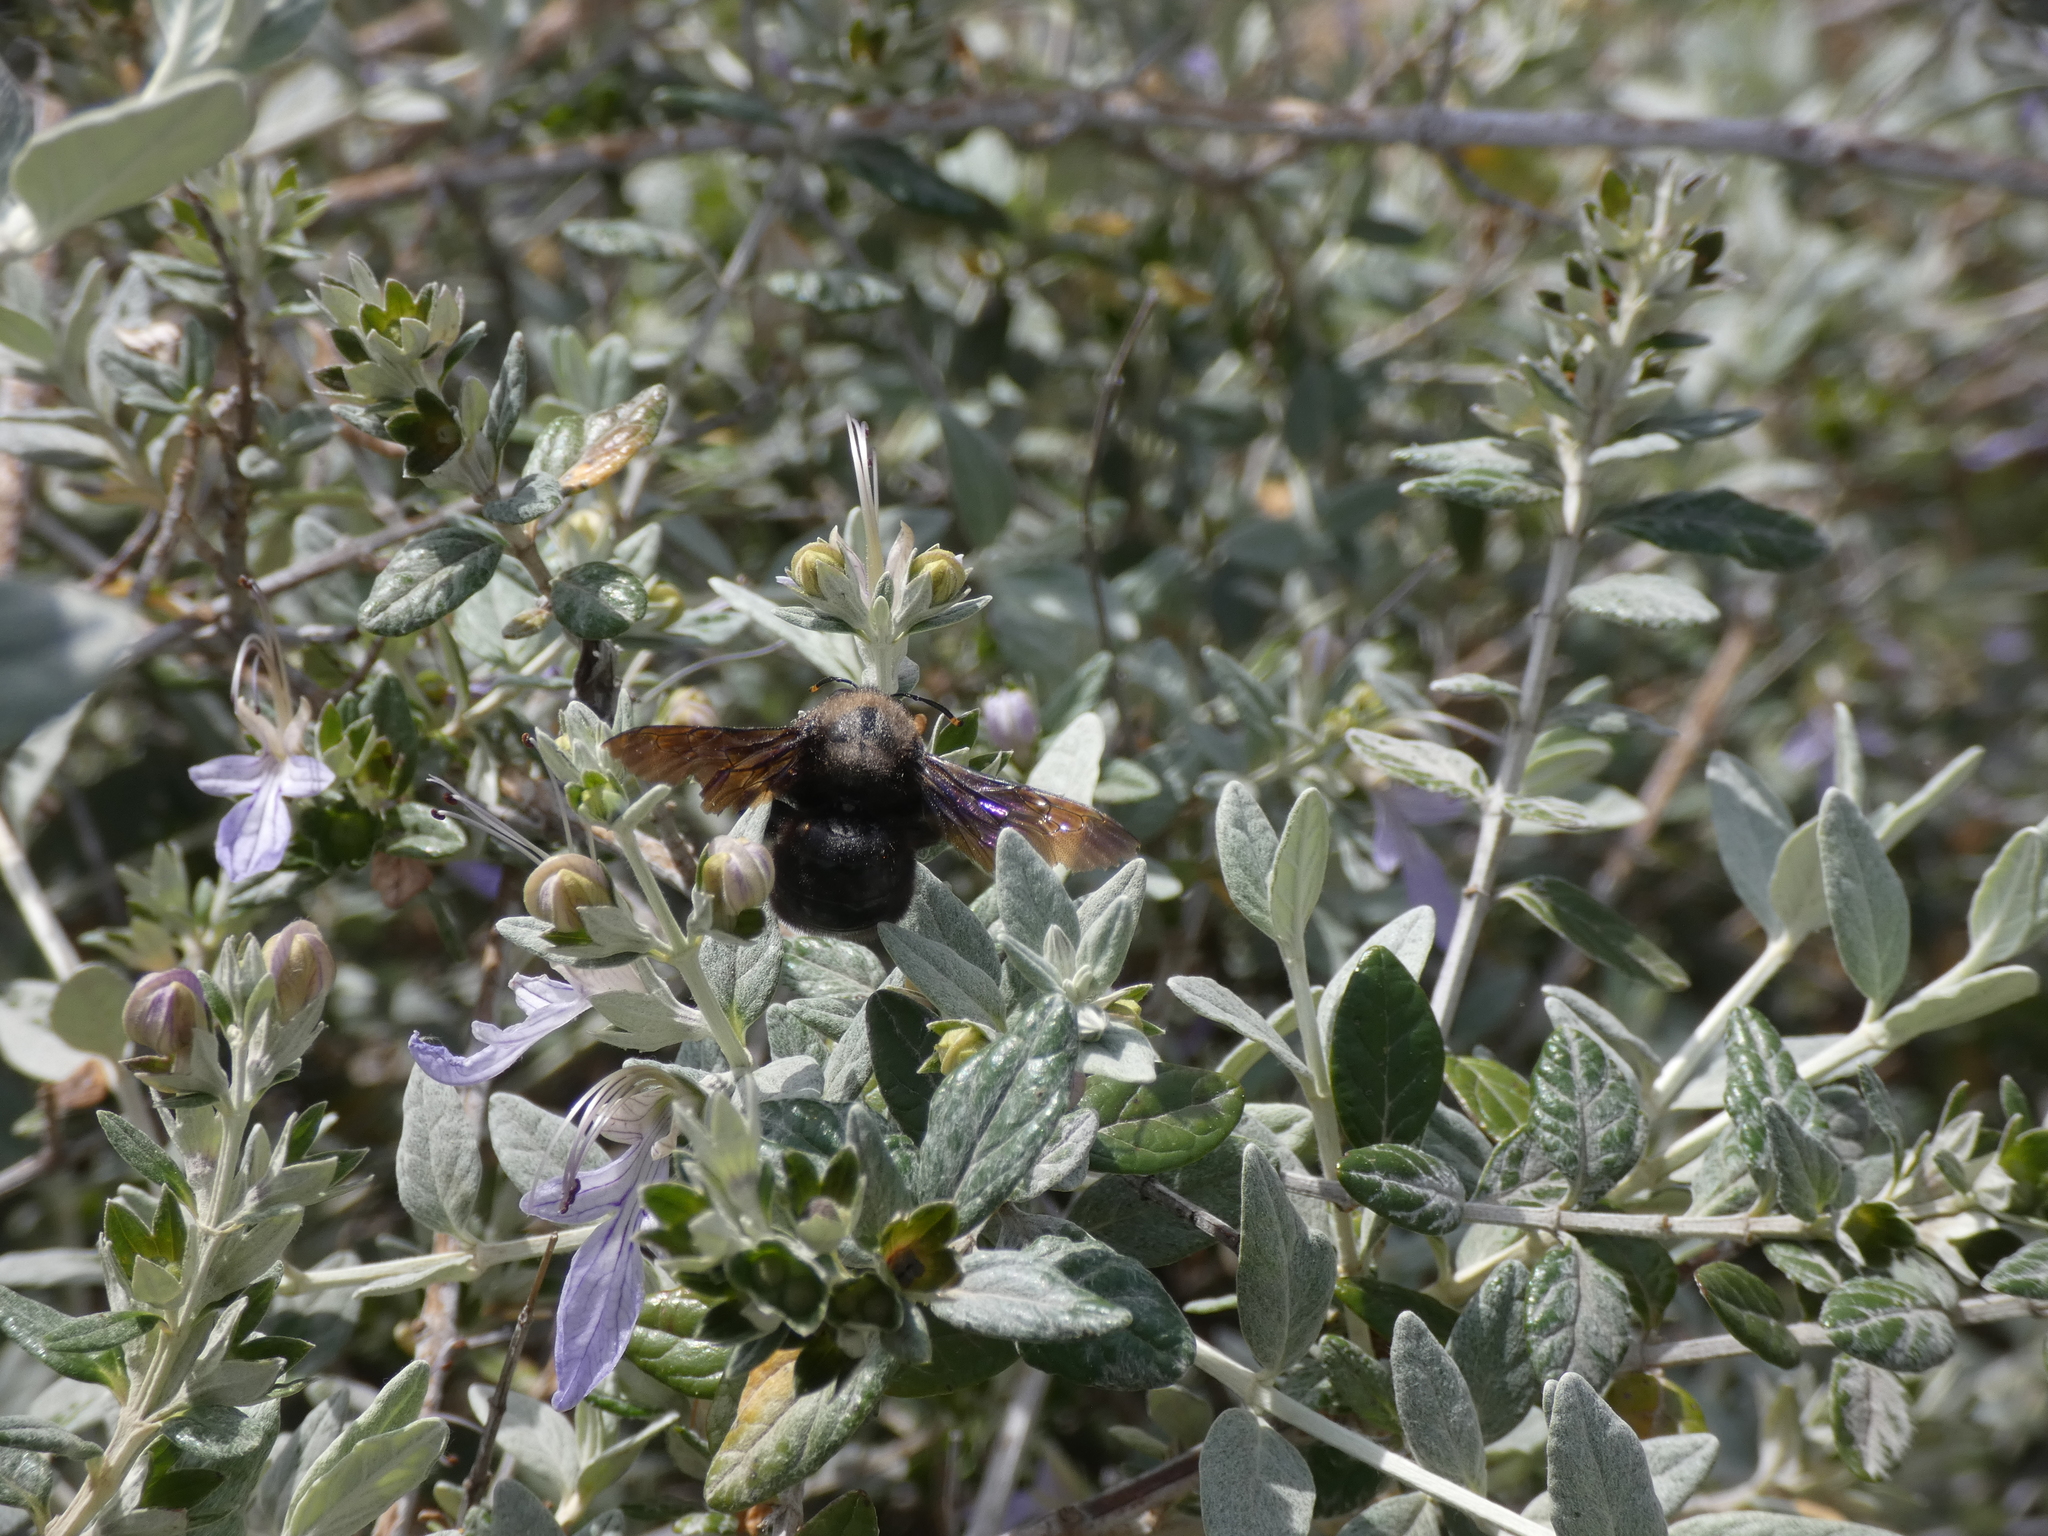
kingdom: Animalia
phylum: Arthropoda
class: Insecta
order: Hymenoptera
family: Apidae
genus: Xylocopa
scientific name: Xylocopa violacea
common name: Violet carpenter bee
